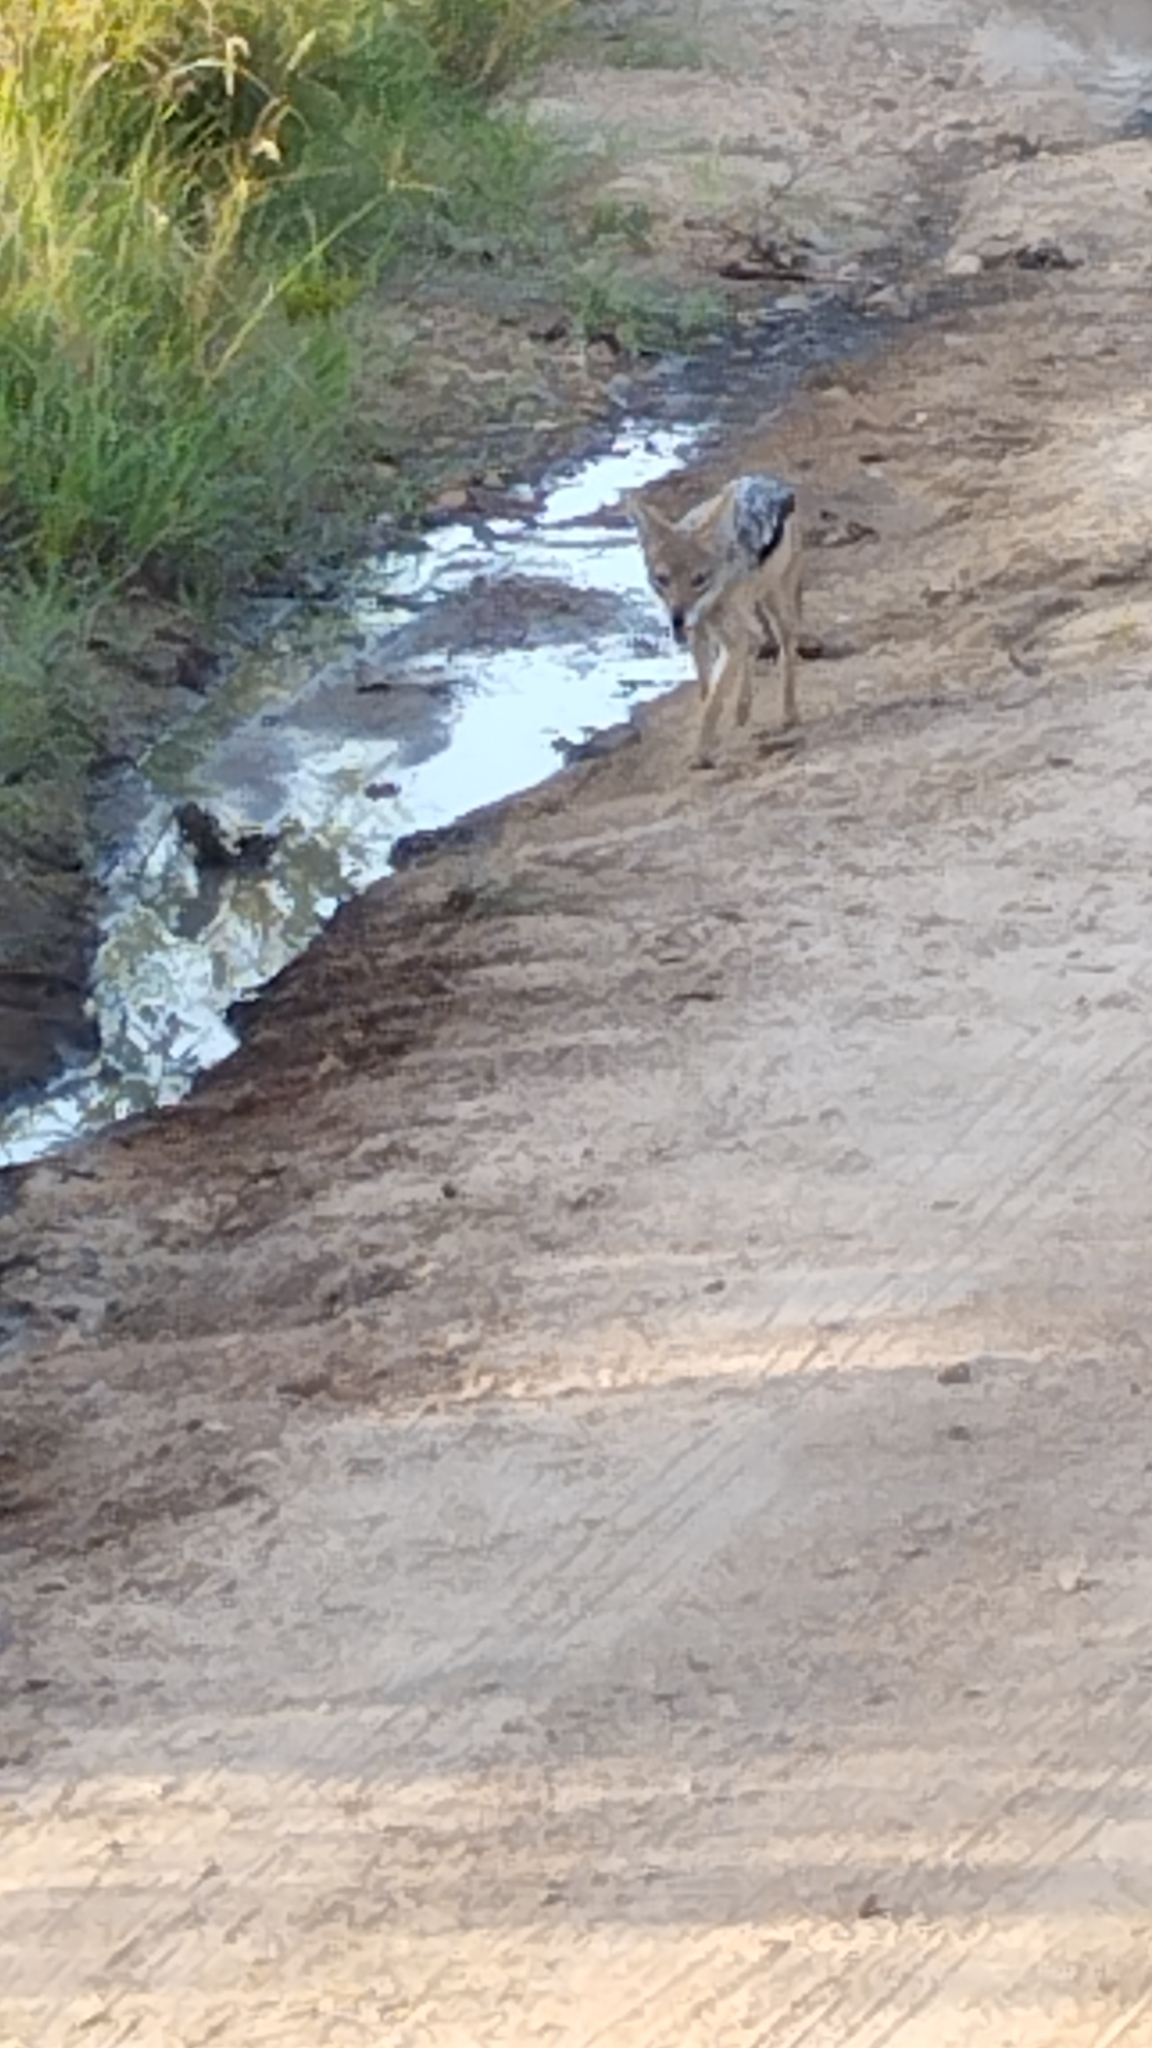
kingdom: Animalia
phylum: Chordata
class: Mammalia
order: Carnivora
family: Canidae
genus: Lupulella
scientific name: Lupulella
